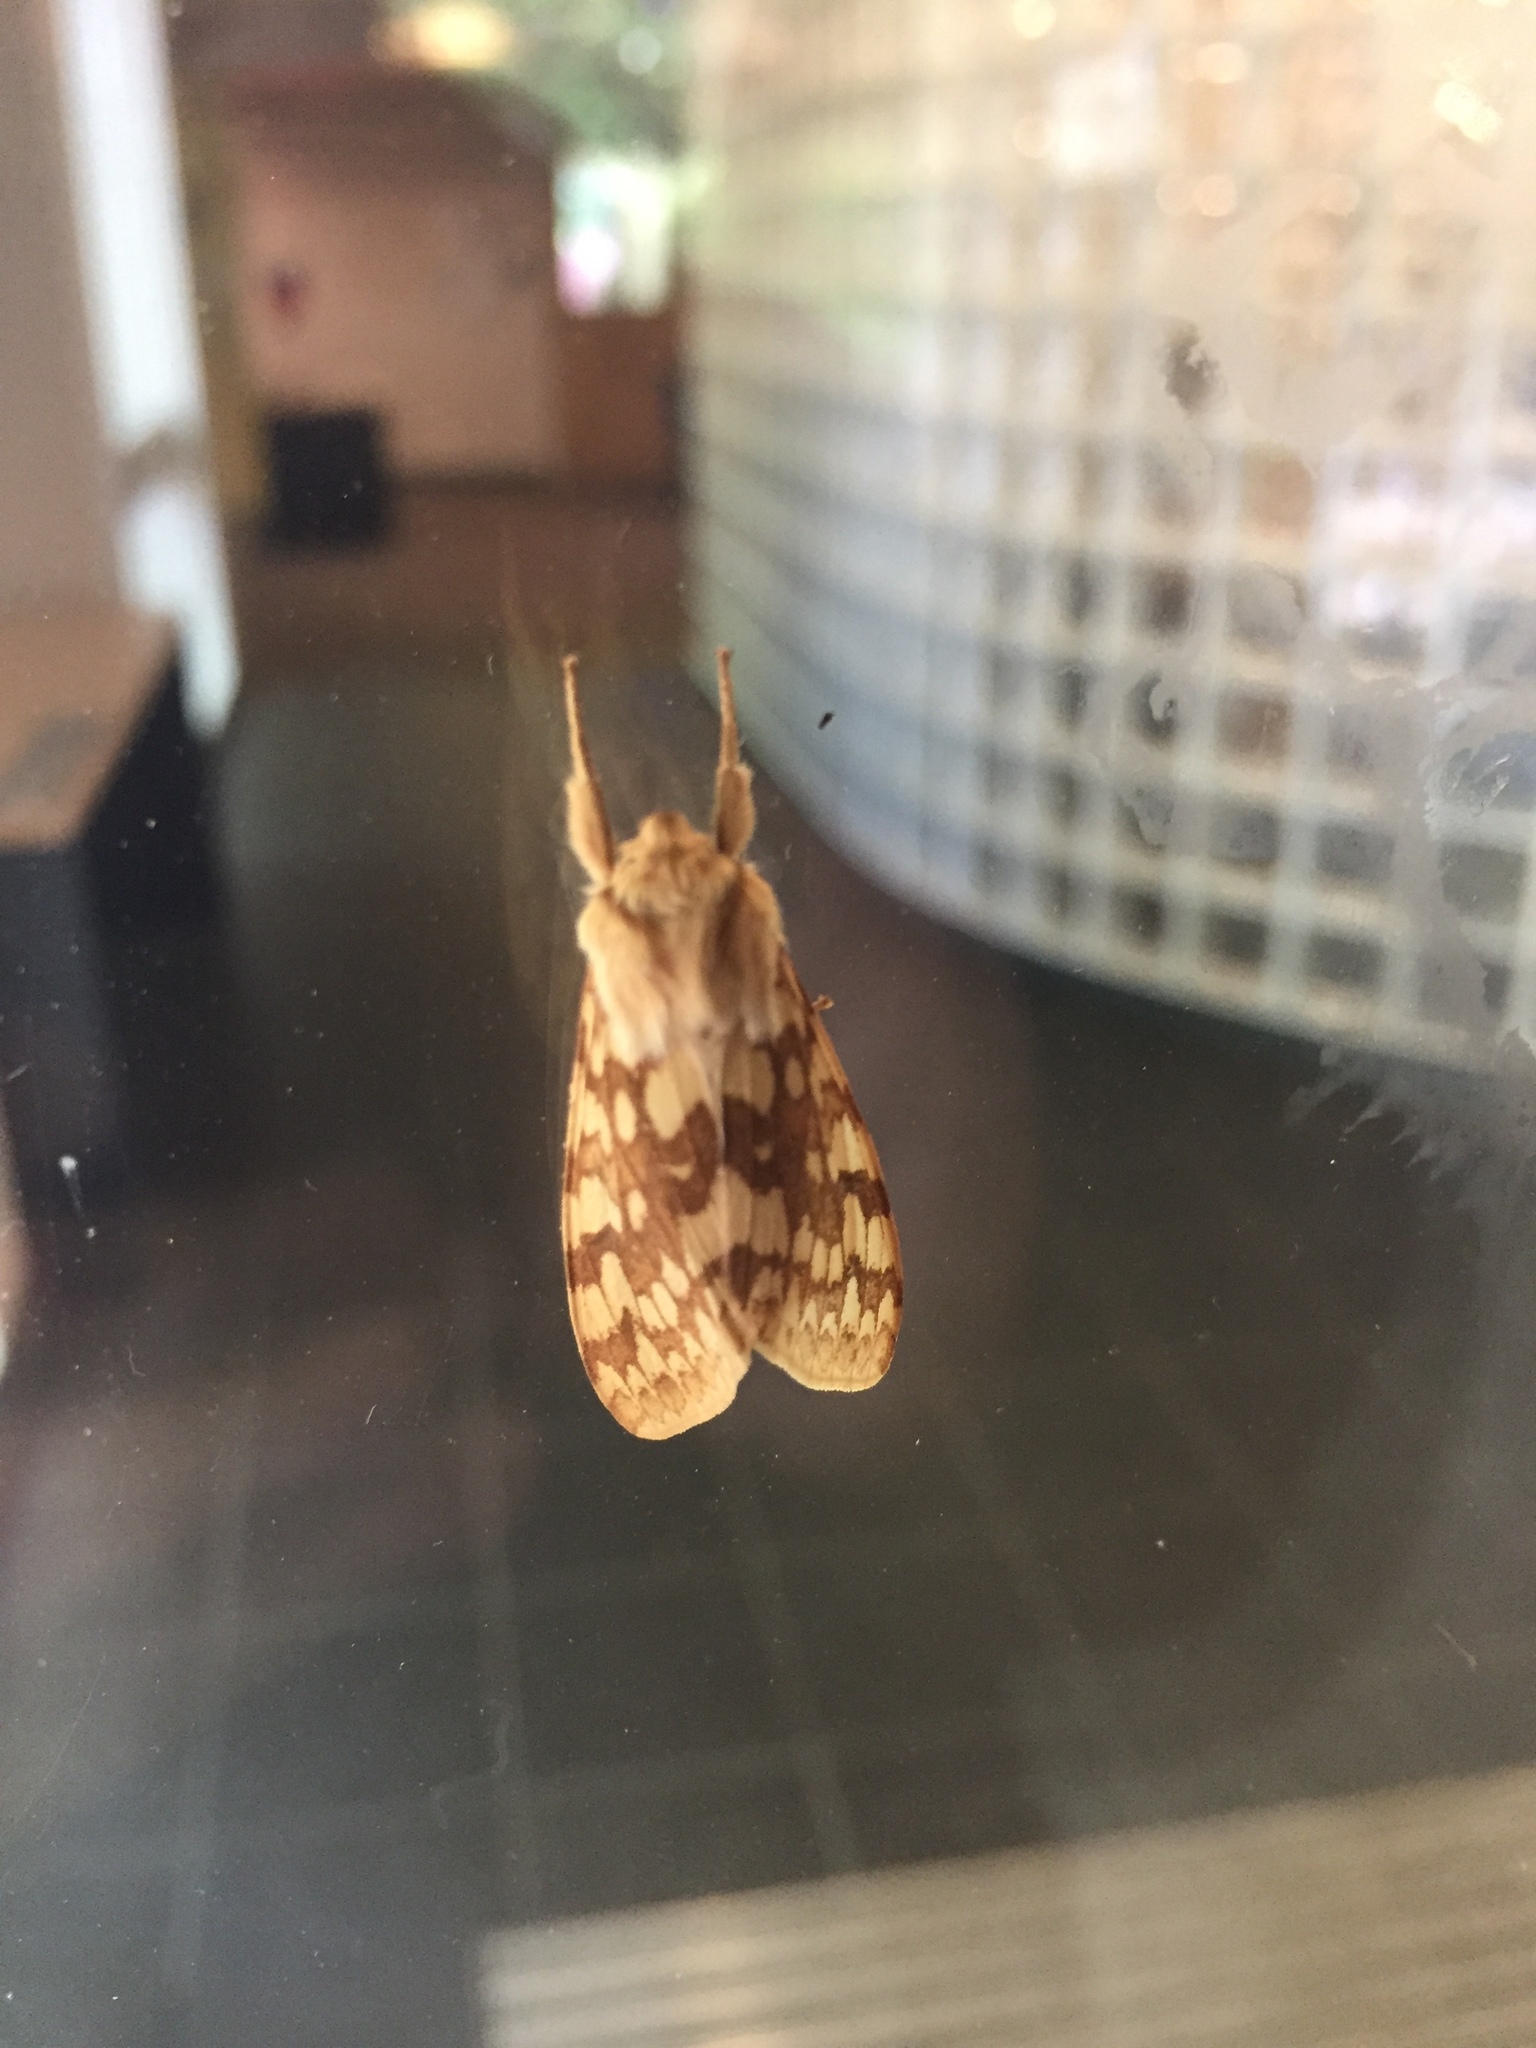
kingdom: Animalia
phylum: Arthropoda
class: Insecta
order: Lepidoptera
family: Erebidae
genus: Lophocampa
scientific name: Lophocampa maculata
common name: Spotted tussock moth
